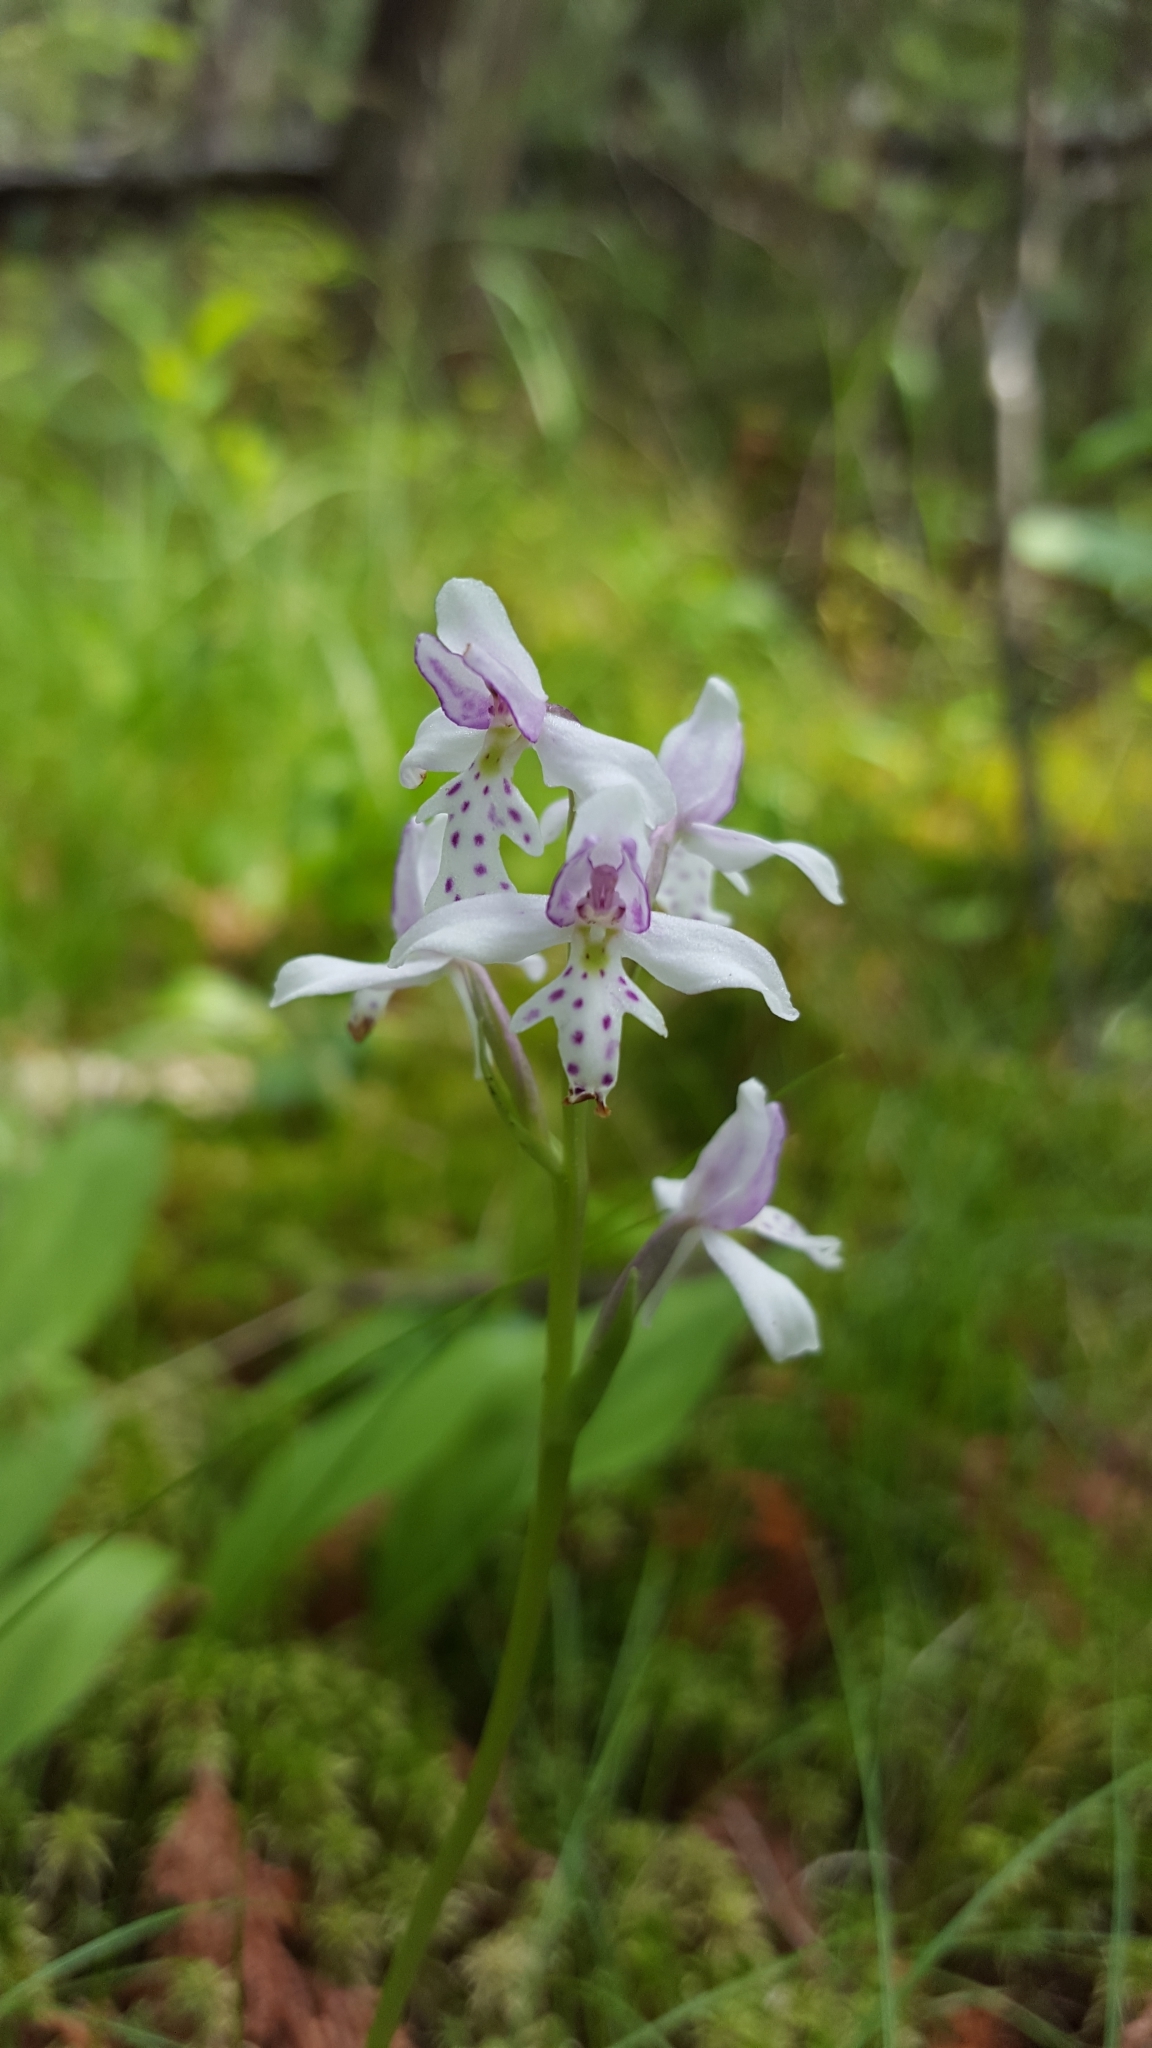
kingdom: Plantae
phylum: Tracheophyta
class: Liliopsida
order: Asparagales
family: Orchidaceae
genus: Galearis
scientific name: Galearis rotundifolia
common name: One-leaved orchis
